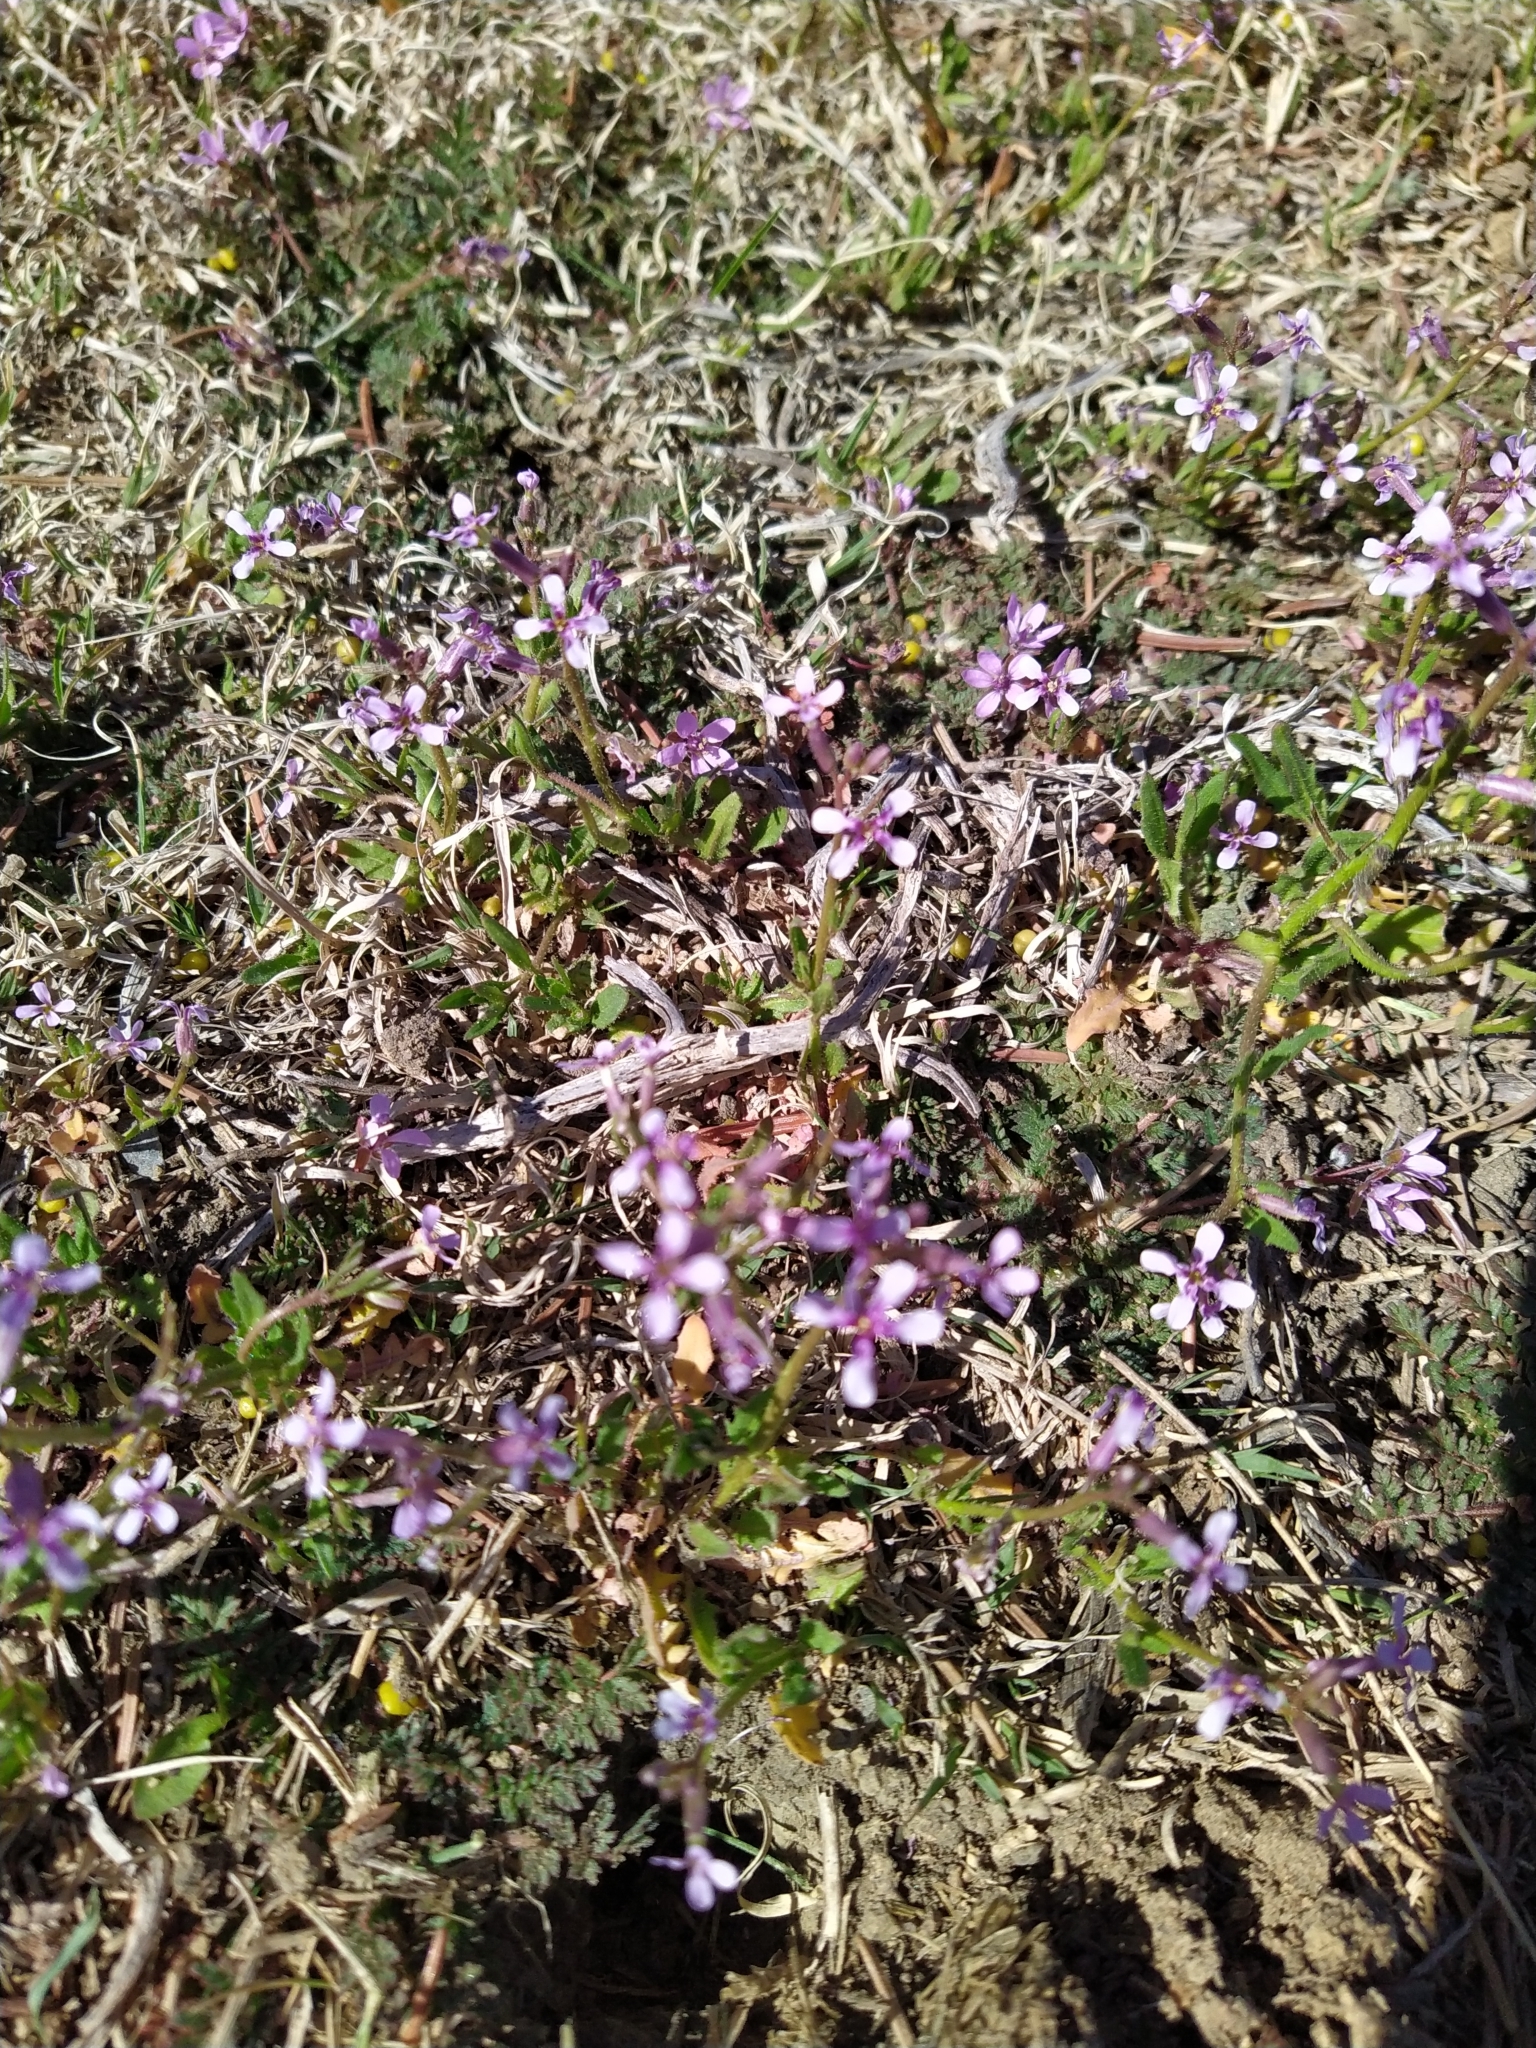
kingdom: Plantae
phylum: Tracheophyta
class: Magnoliopsida
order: Brassicales
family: Brassicaceae
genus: Chorispora
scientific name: Chorispora tenella
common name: Crossflower
